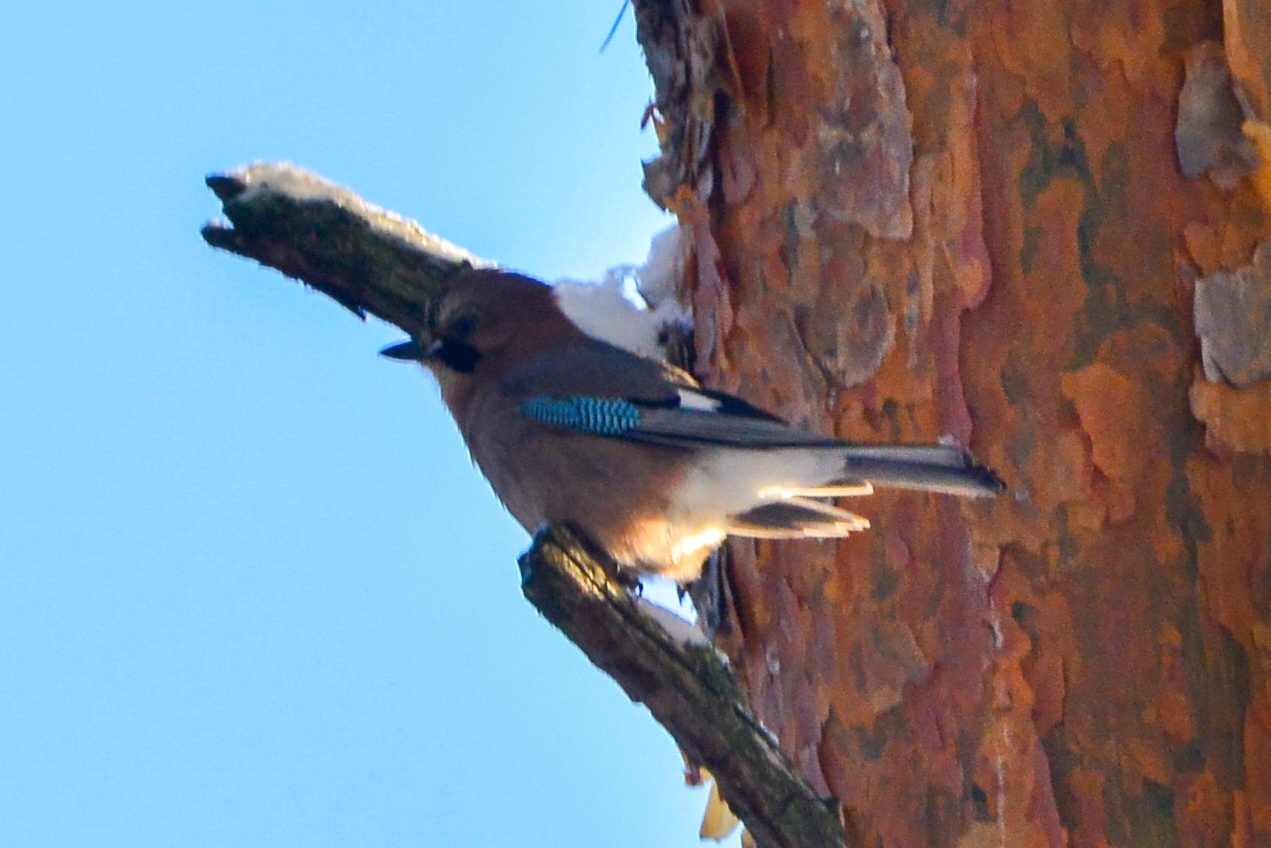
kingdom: Animalia
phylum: Chordata
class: Aves
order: Passeriformes
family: Corvidae
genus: Garrulus
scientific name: Garrulus glandarius
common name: Eurasian jay
